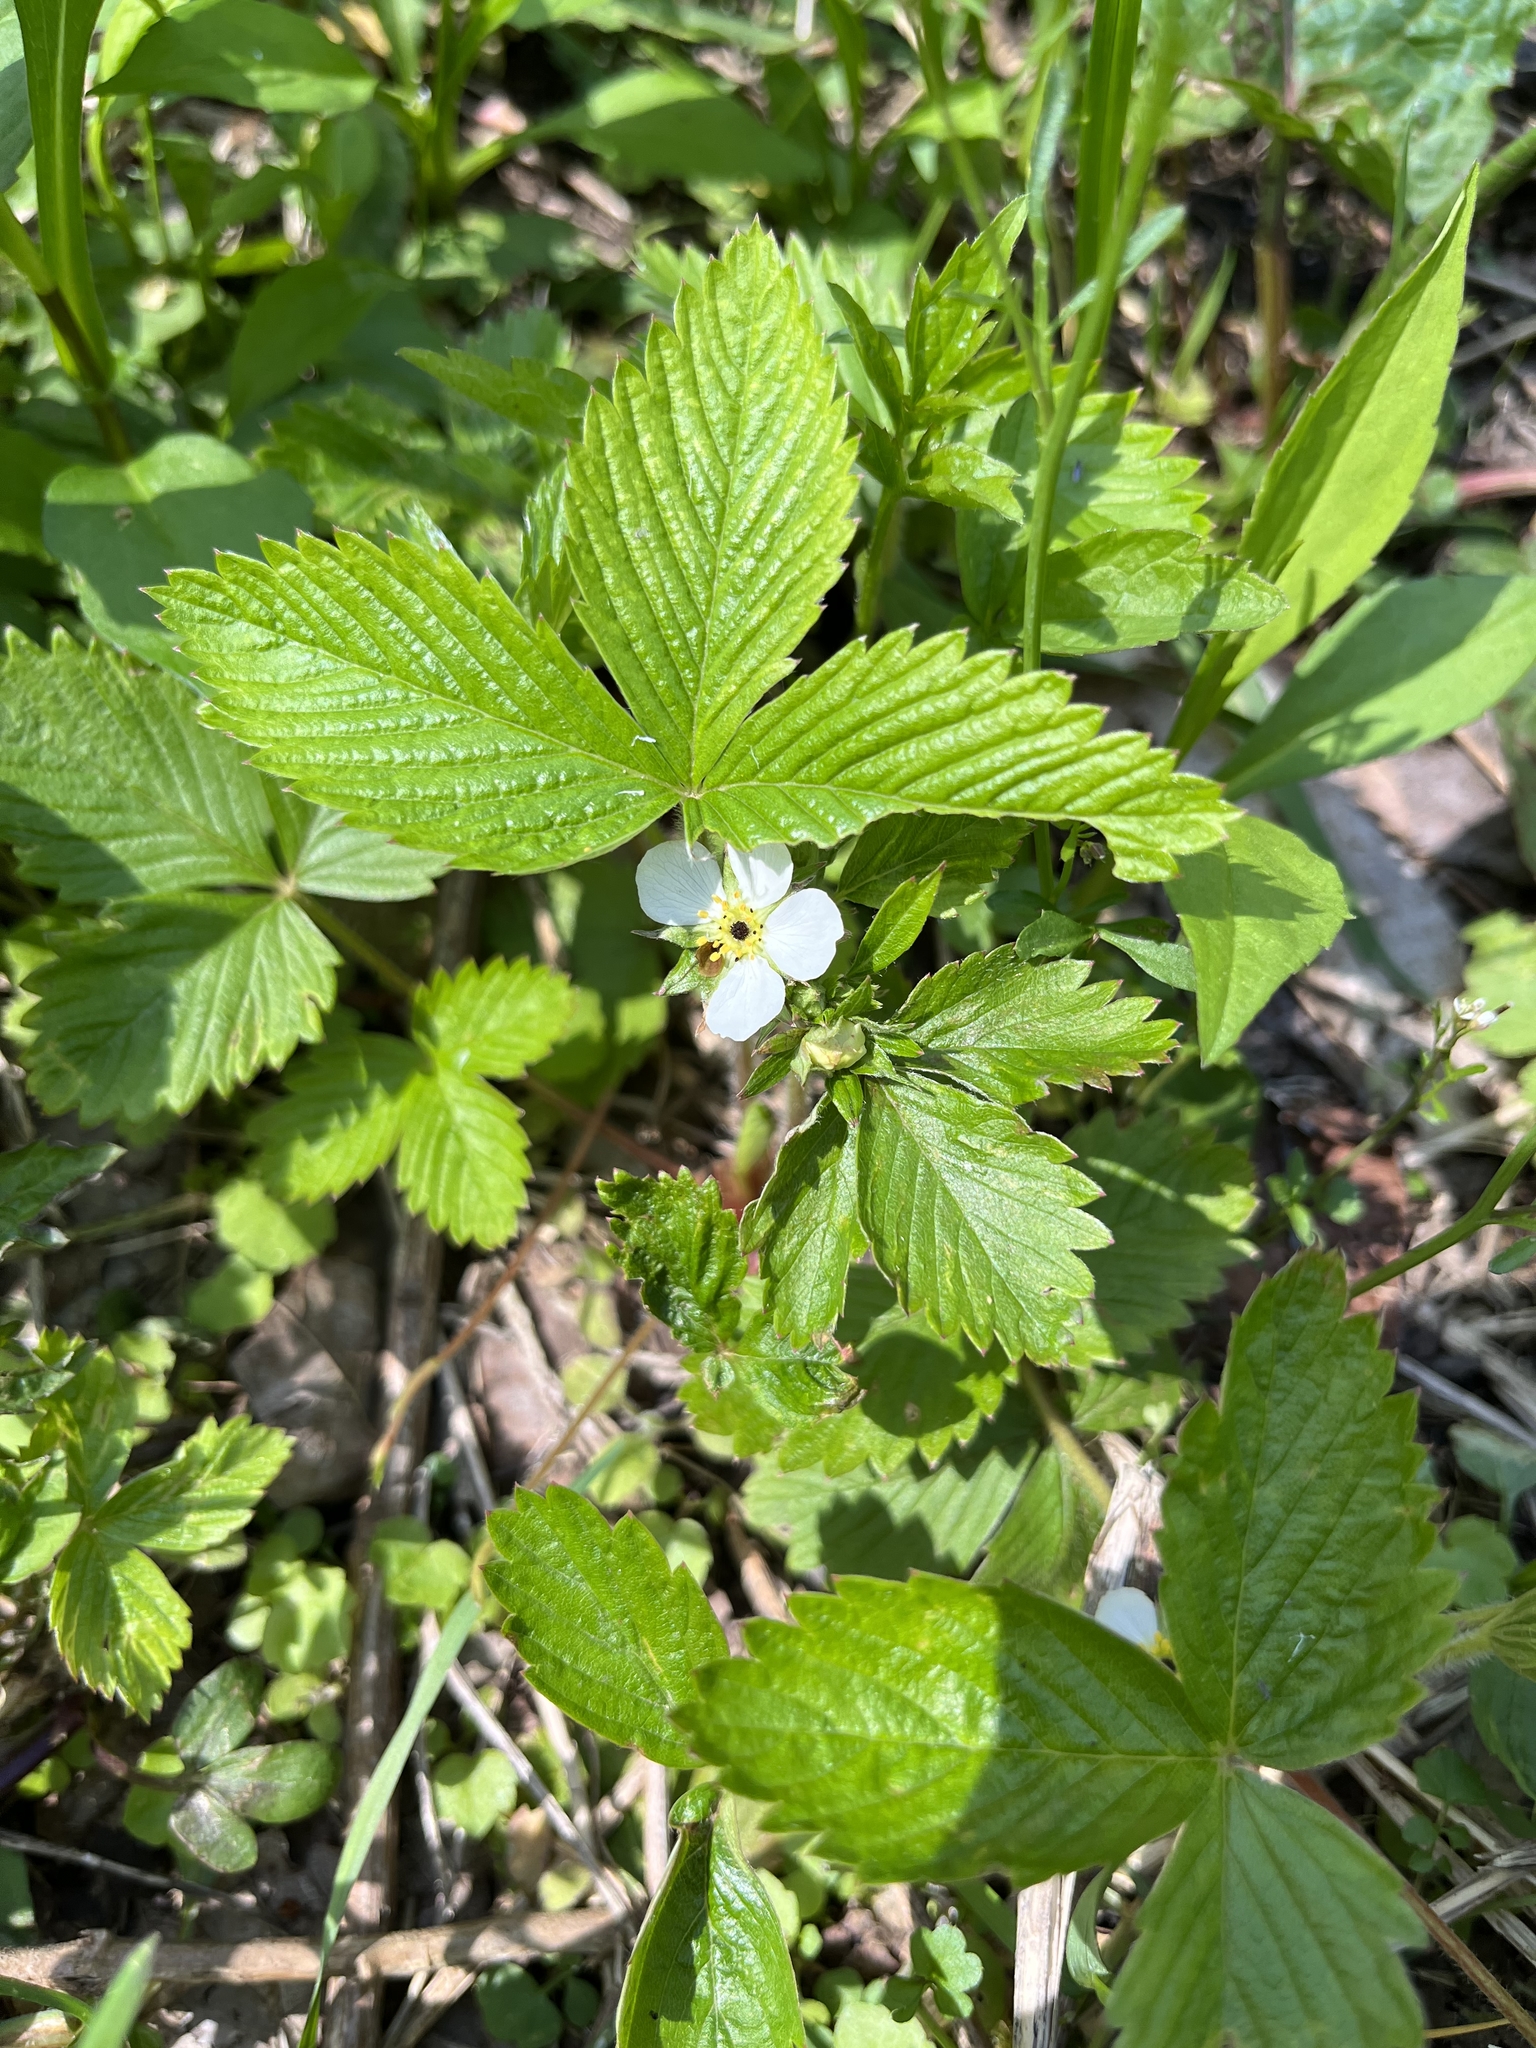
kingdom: Plantae
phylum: Tracheophyta
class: Magnoliopsida
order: Rosales
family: Rosaceae
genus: Fragaria
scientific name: Fragaria vesca
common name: Wild strawberry
